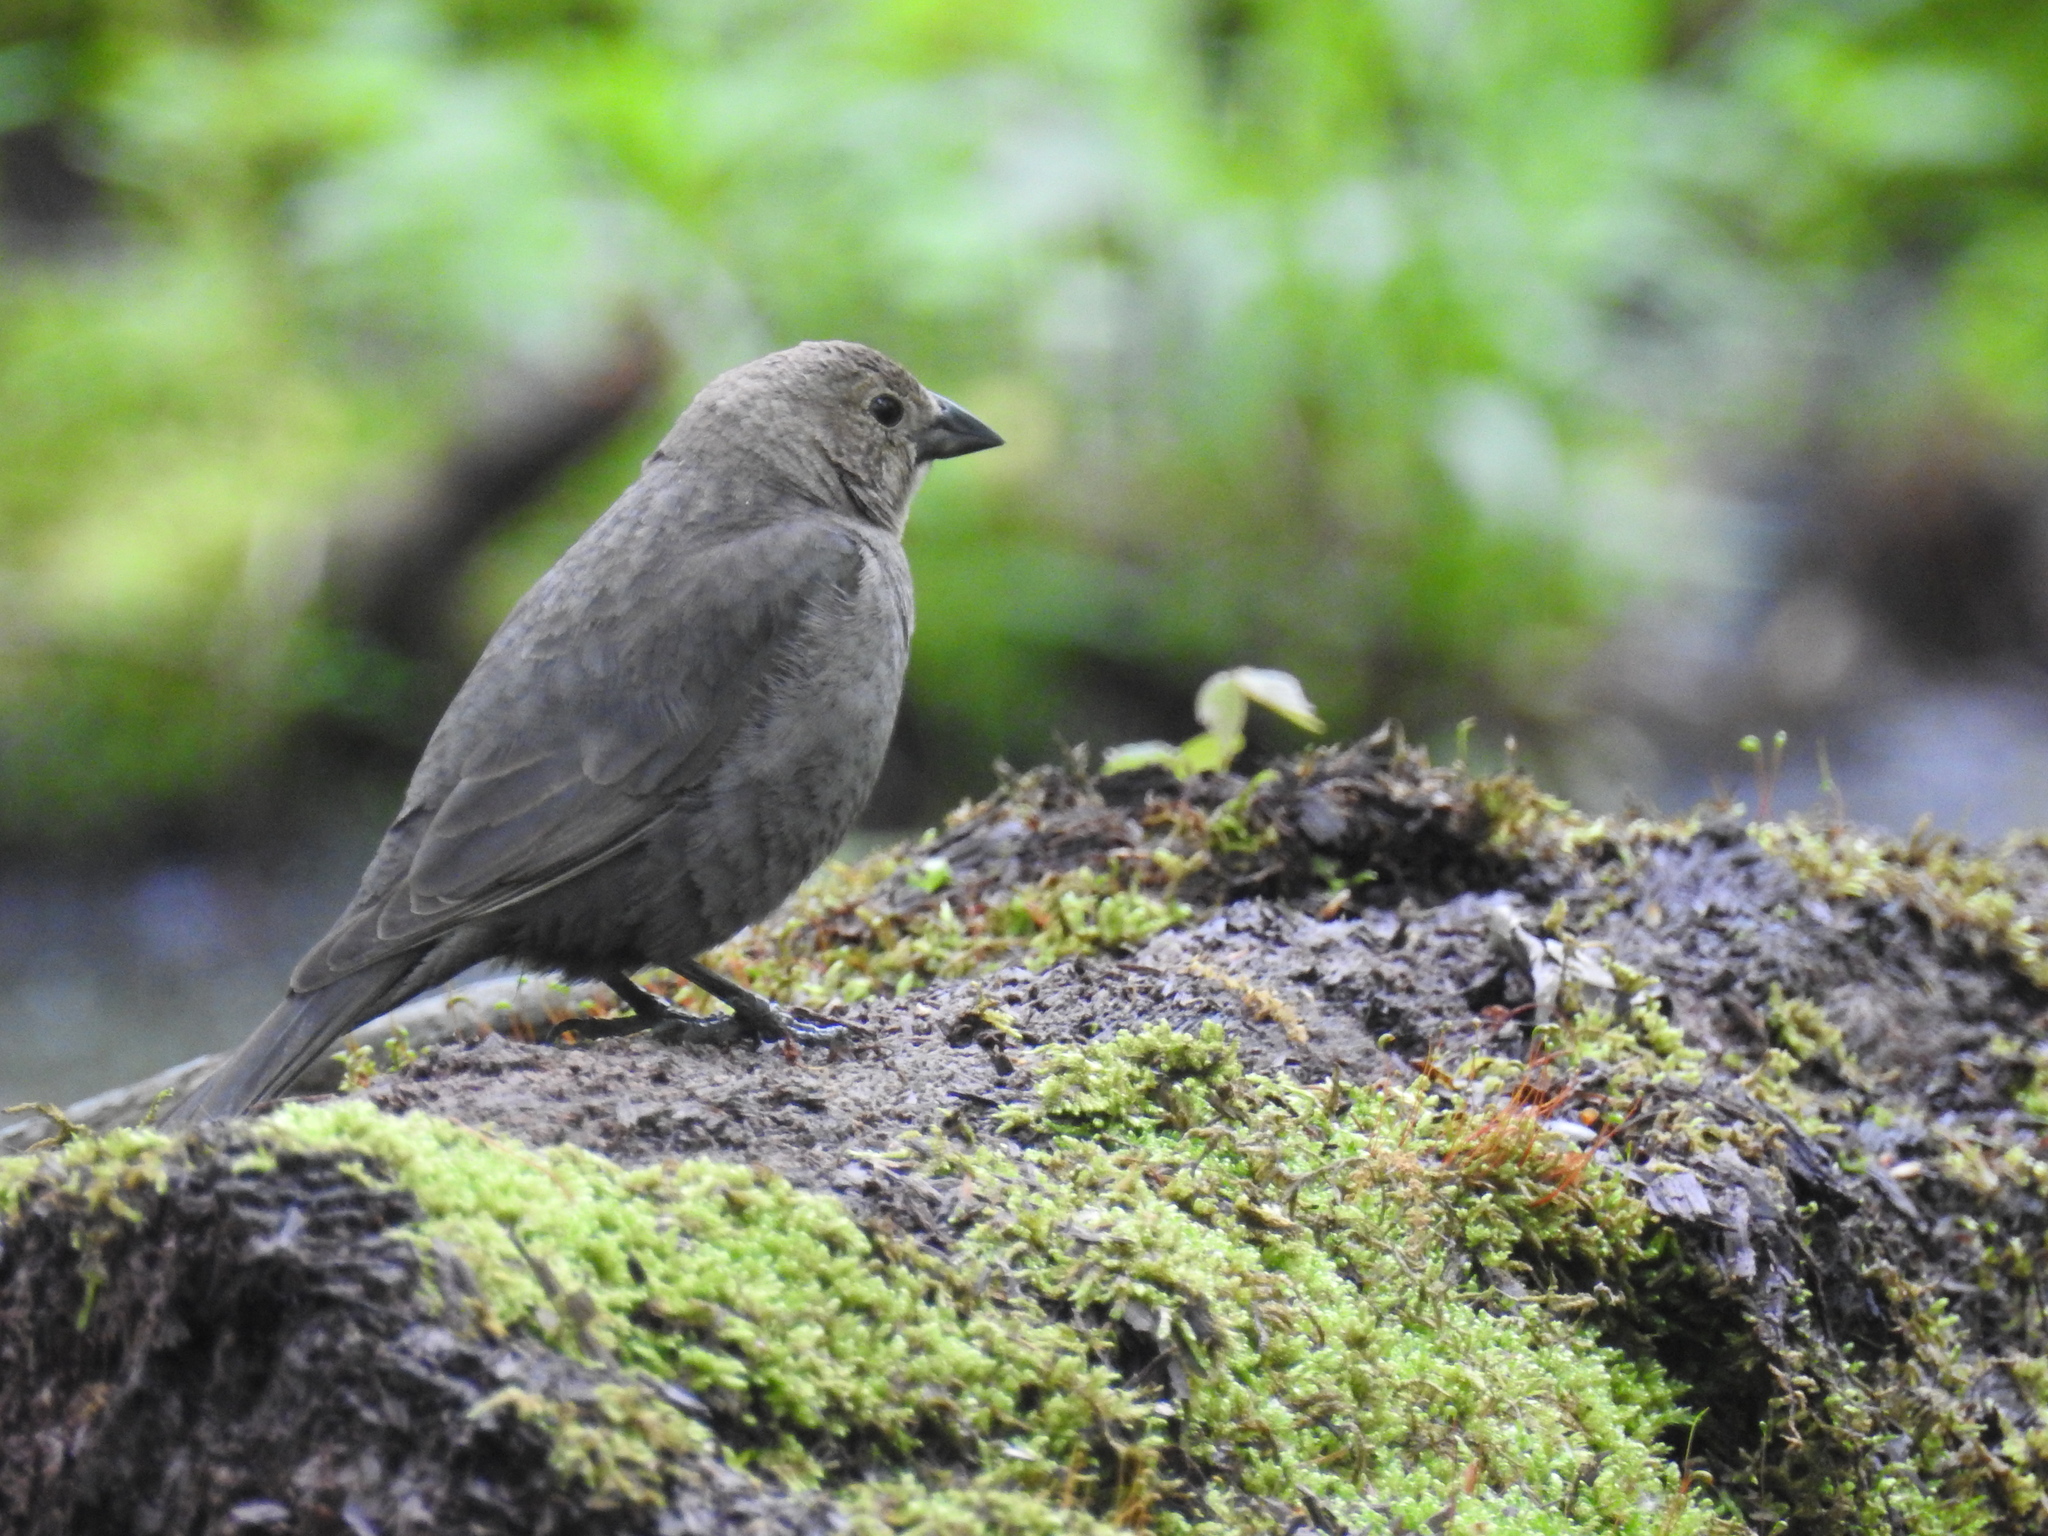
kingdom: Animalia
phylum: Chordata
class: Aves
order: Passeriformes
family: Icteridae
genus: Molothrus
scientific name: Molothrus ater
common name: Brown-headed cowbird
